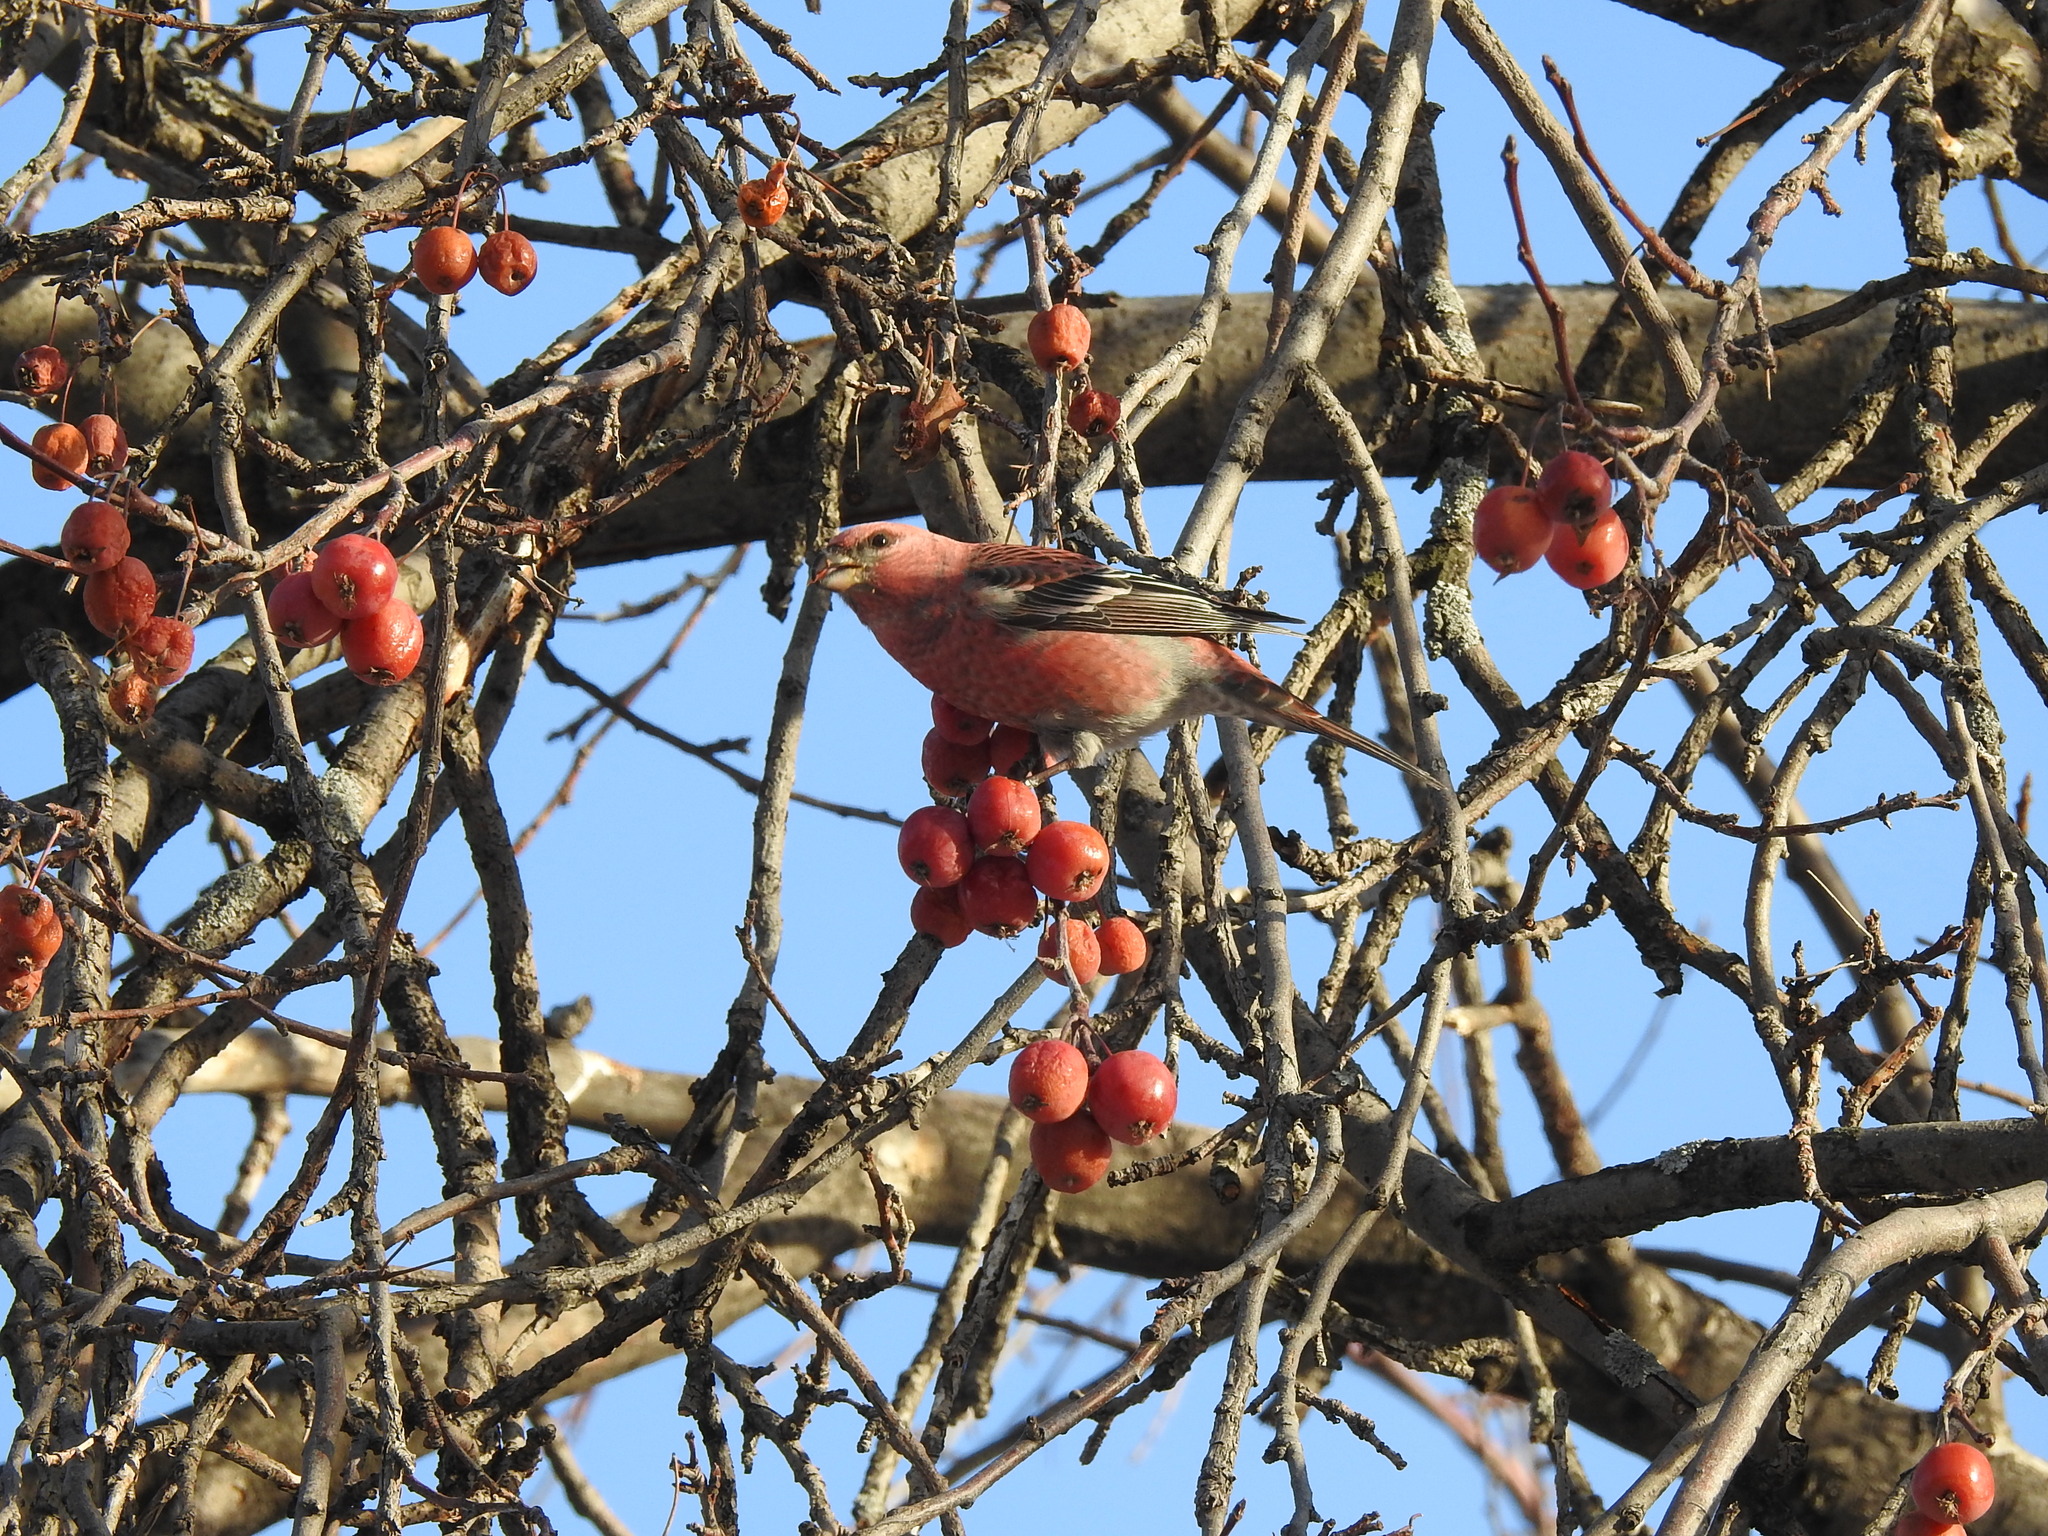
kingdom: Animalia
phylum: Chordata
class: Aves
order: Passeriformes
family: Fringillidae
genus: Pinicola
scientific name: Pinicola enucleator
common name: Pine grosbeak
